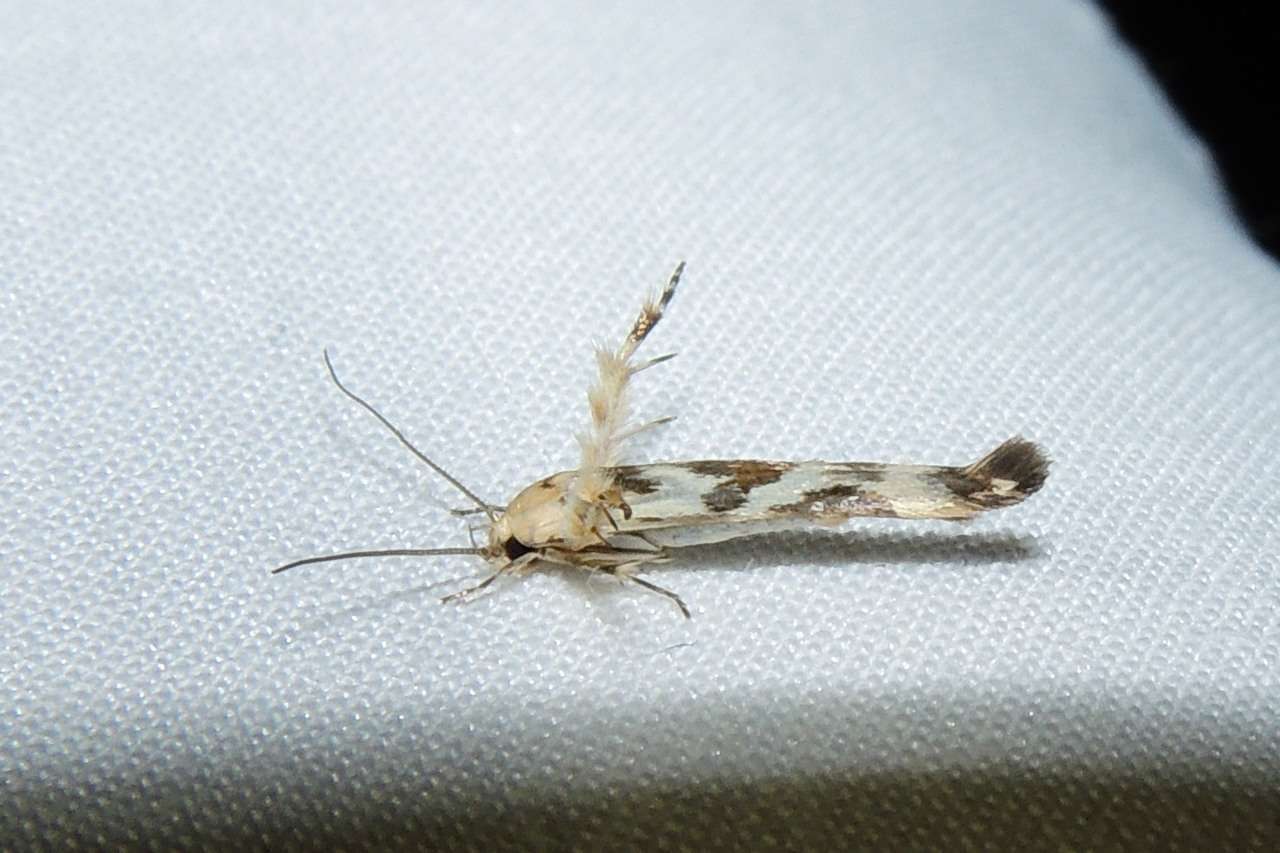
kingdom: Animalia
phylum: Arthropoda
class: Insecta
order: Lepidoptera
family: Stathmopodidae
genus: Stathmopoda
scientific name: Stathmopoda melanochra
